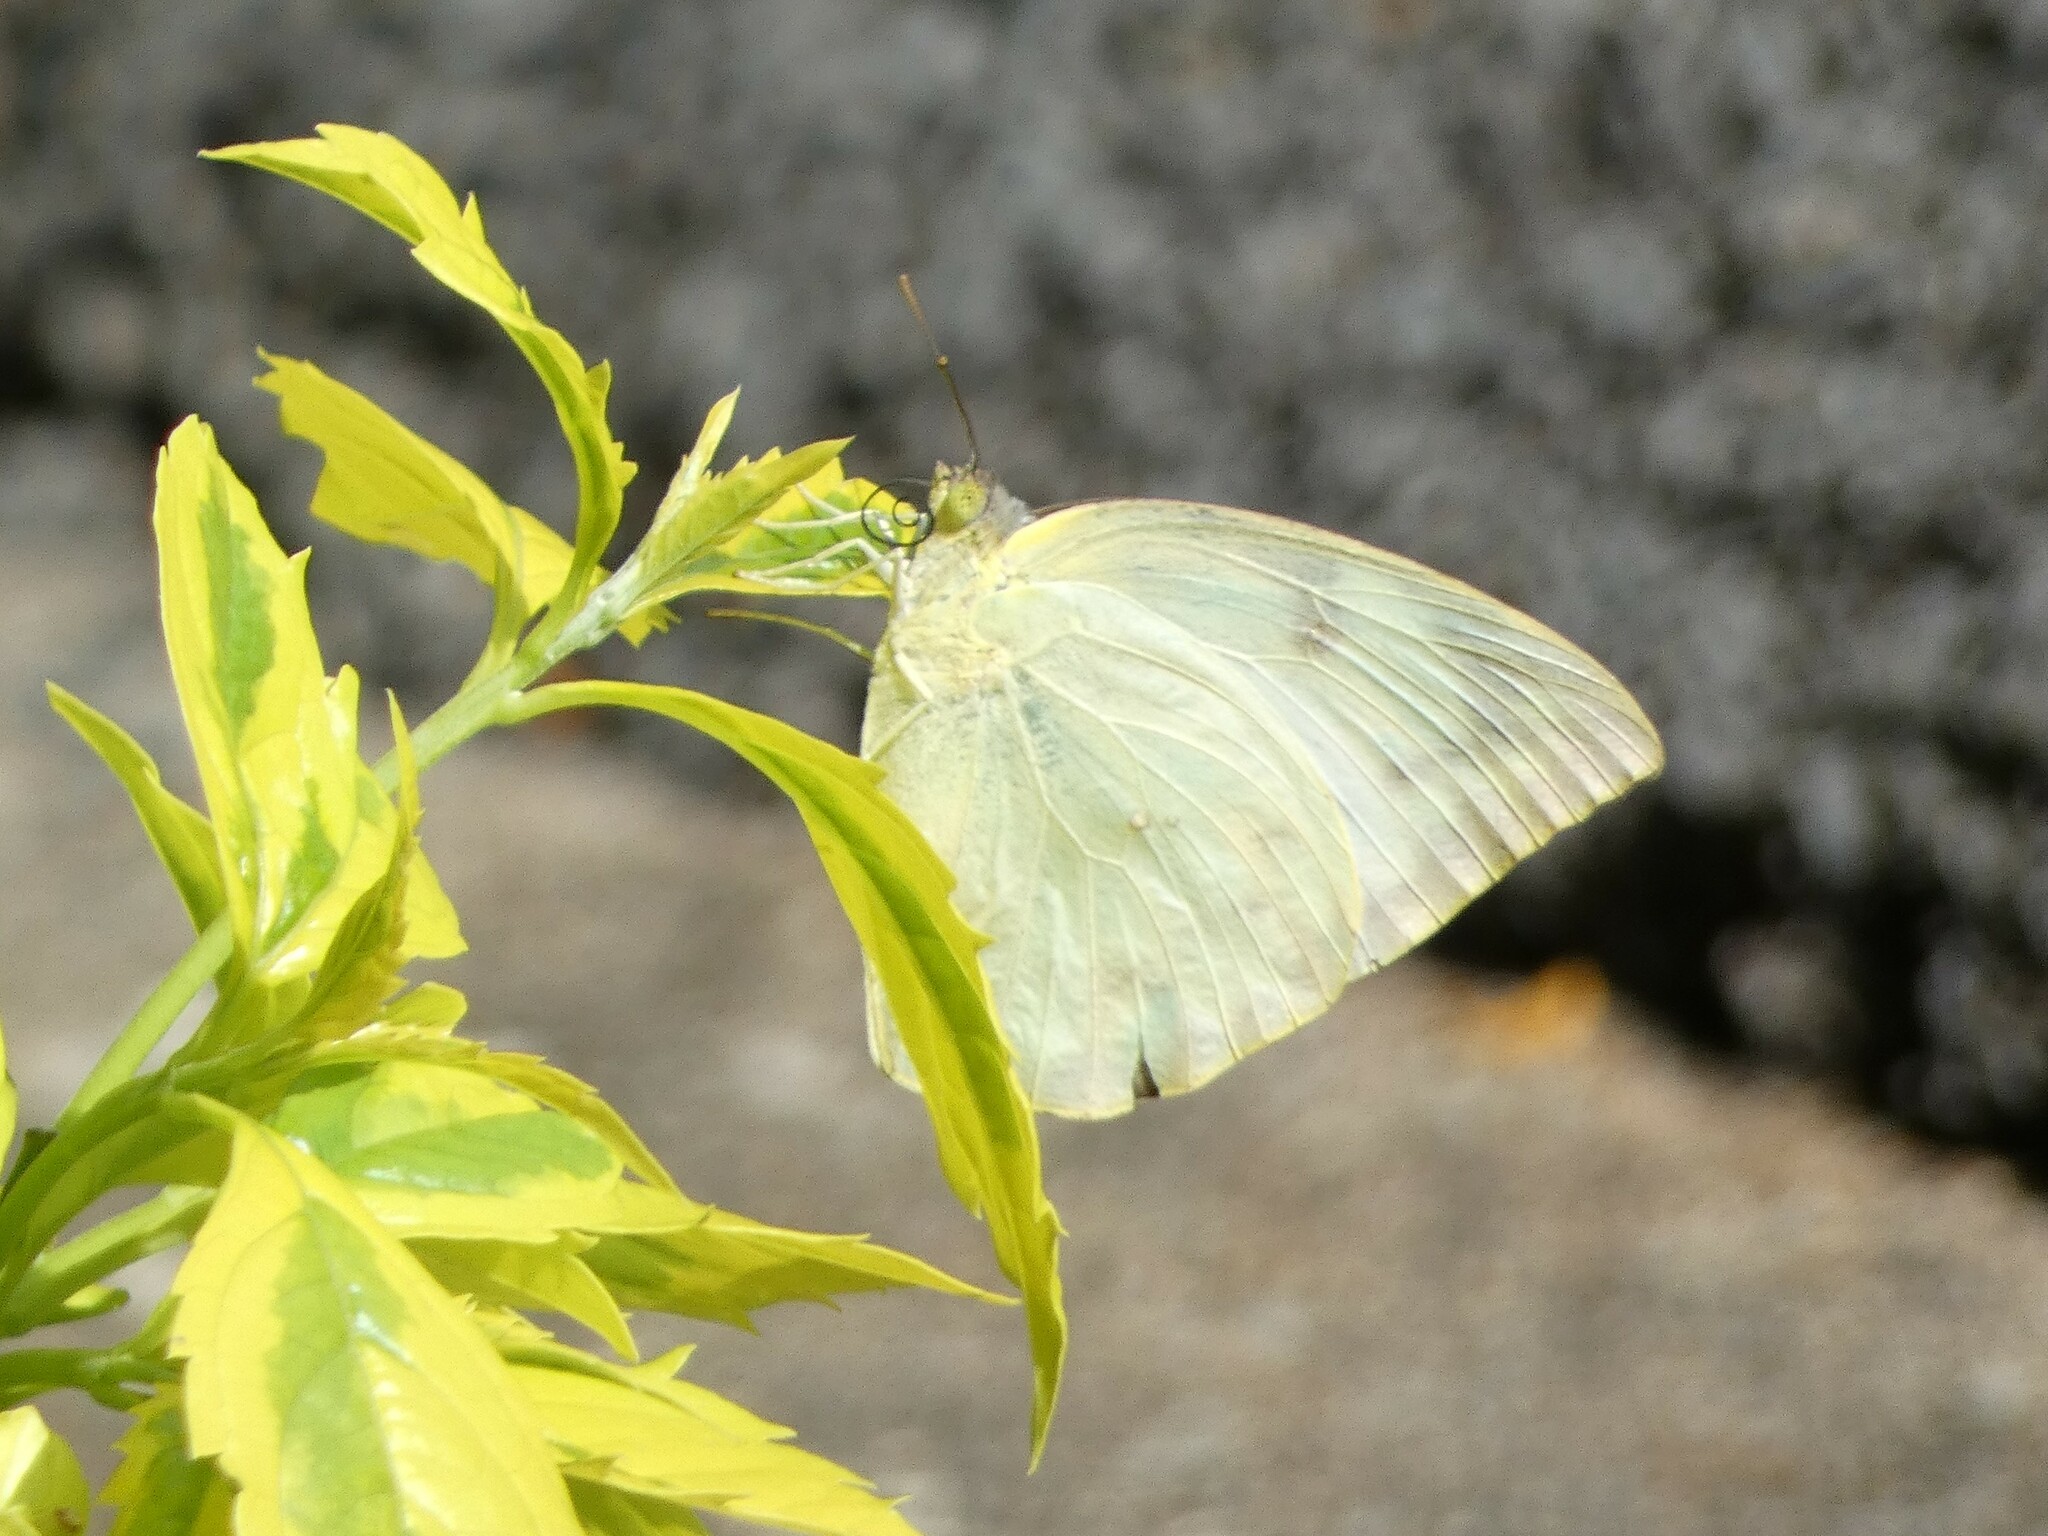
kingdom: Animalia
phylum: Arthropoda
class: Insecta
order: Lepidoptera
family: Pieridae
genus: Catopsilia
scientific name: Catopsilia pomona
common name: Common emigrant
